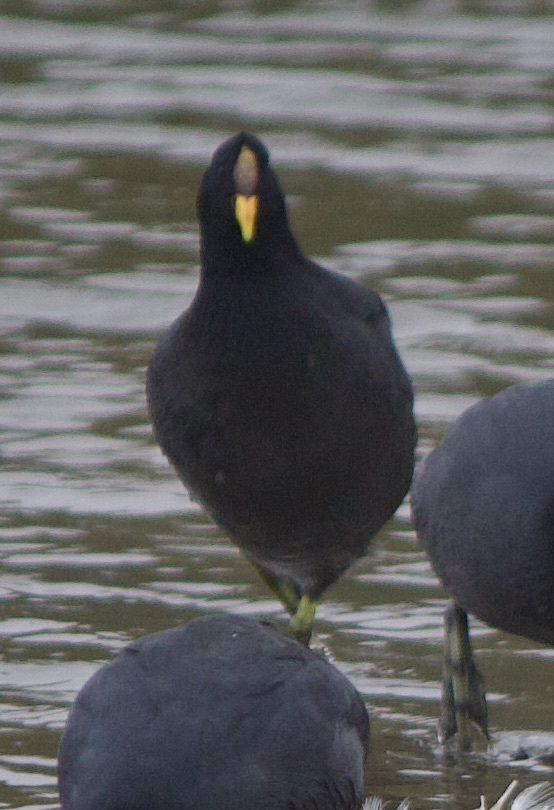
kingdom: Animalia
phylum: Chordata
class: Aves
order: Gruiformes
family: Rallidae
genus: Fulica
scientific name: Fulica rufifrons
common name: Red-fronted coot
